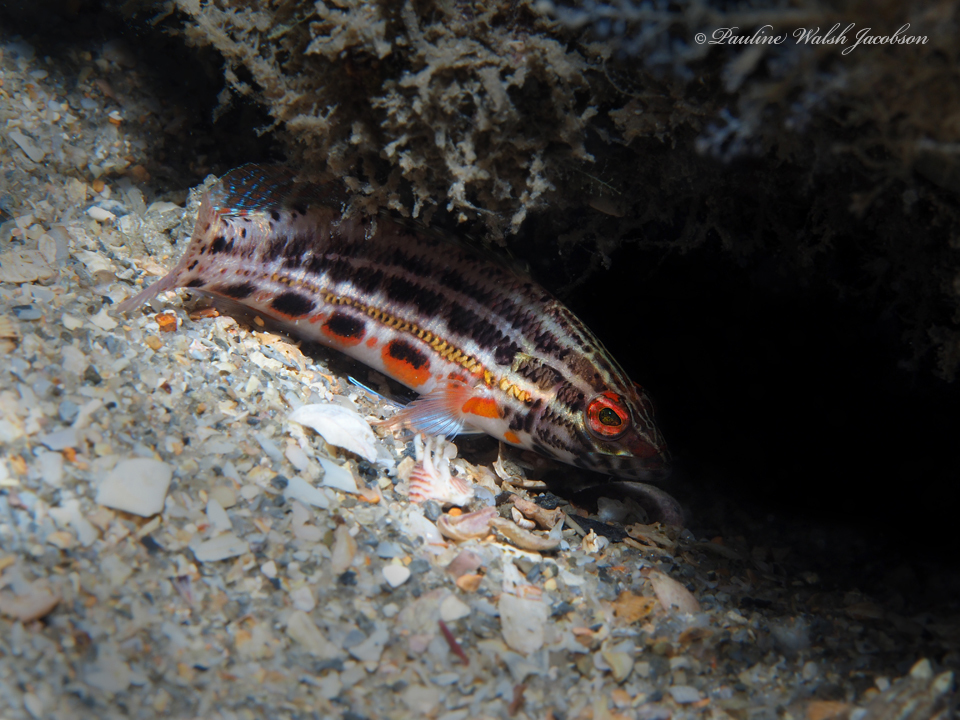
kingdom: Animalia
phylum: Chordata
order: Perciformes
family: Serranidae
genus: Serranus
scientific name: Serranus baldwini
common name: Lantern bass
